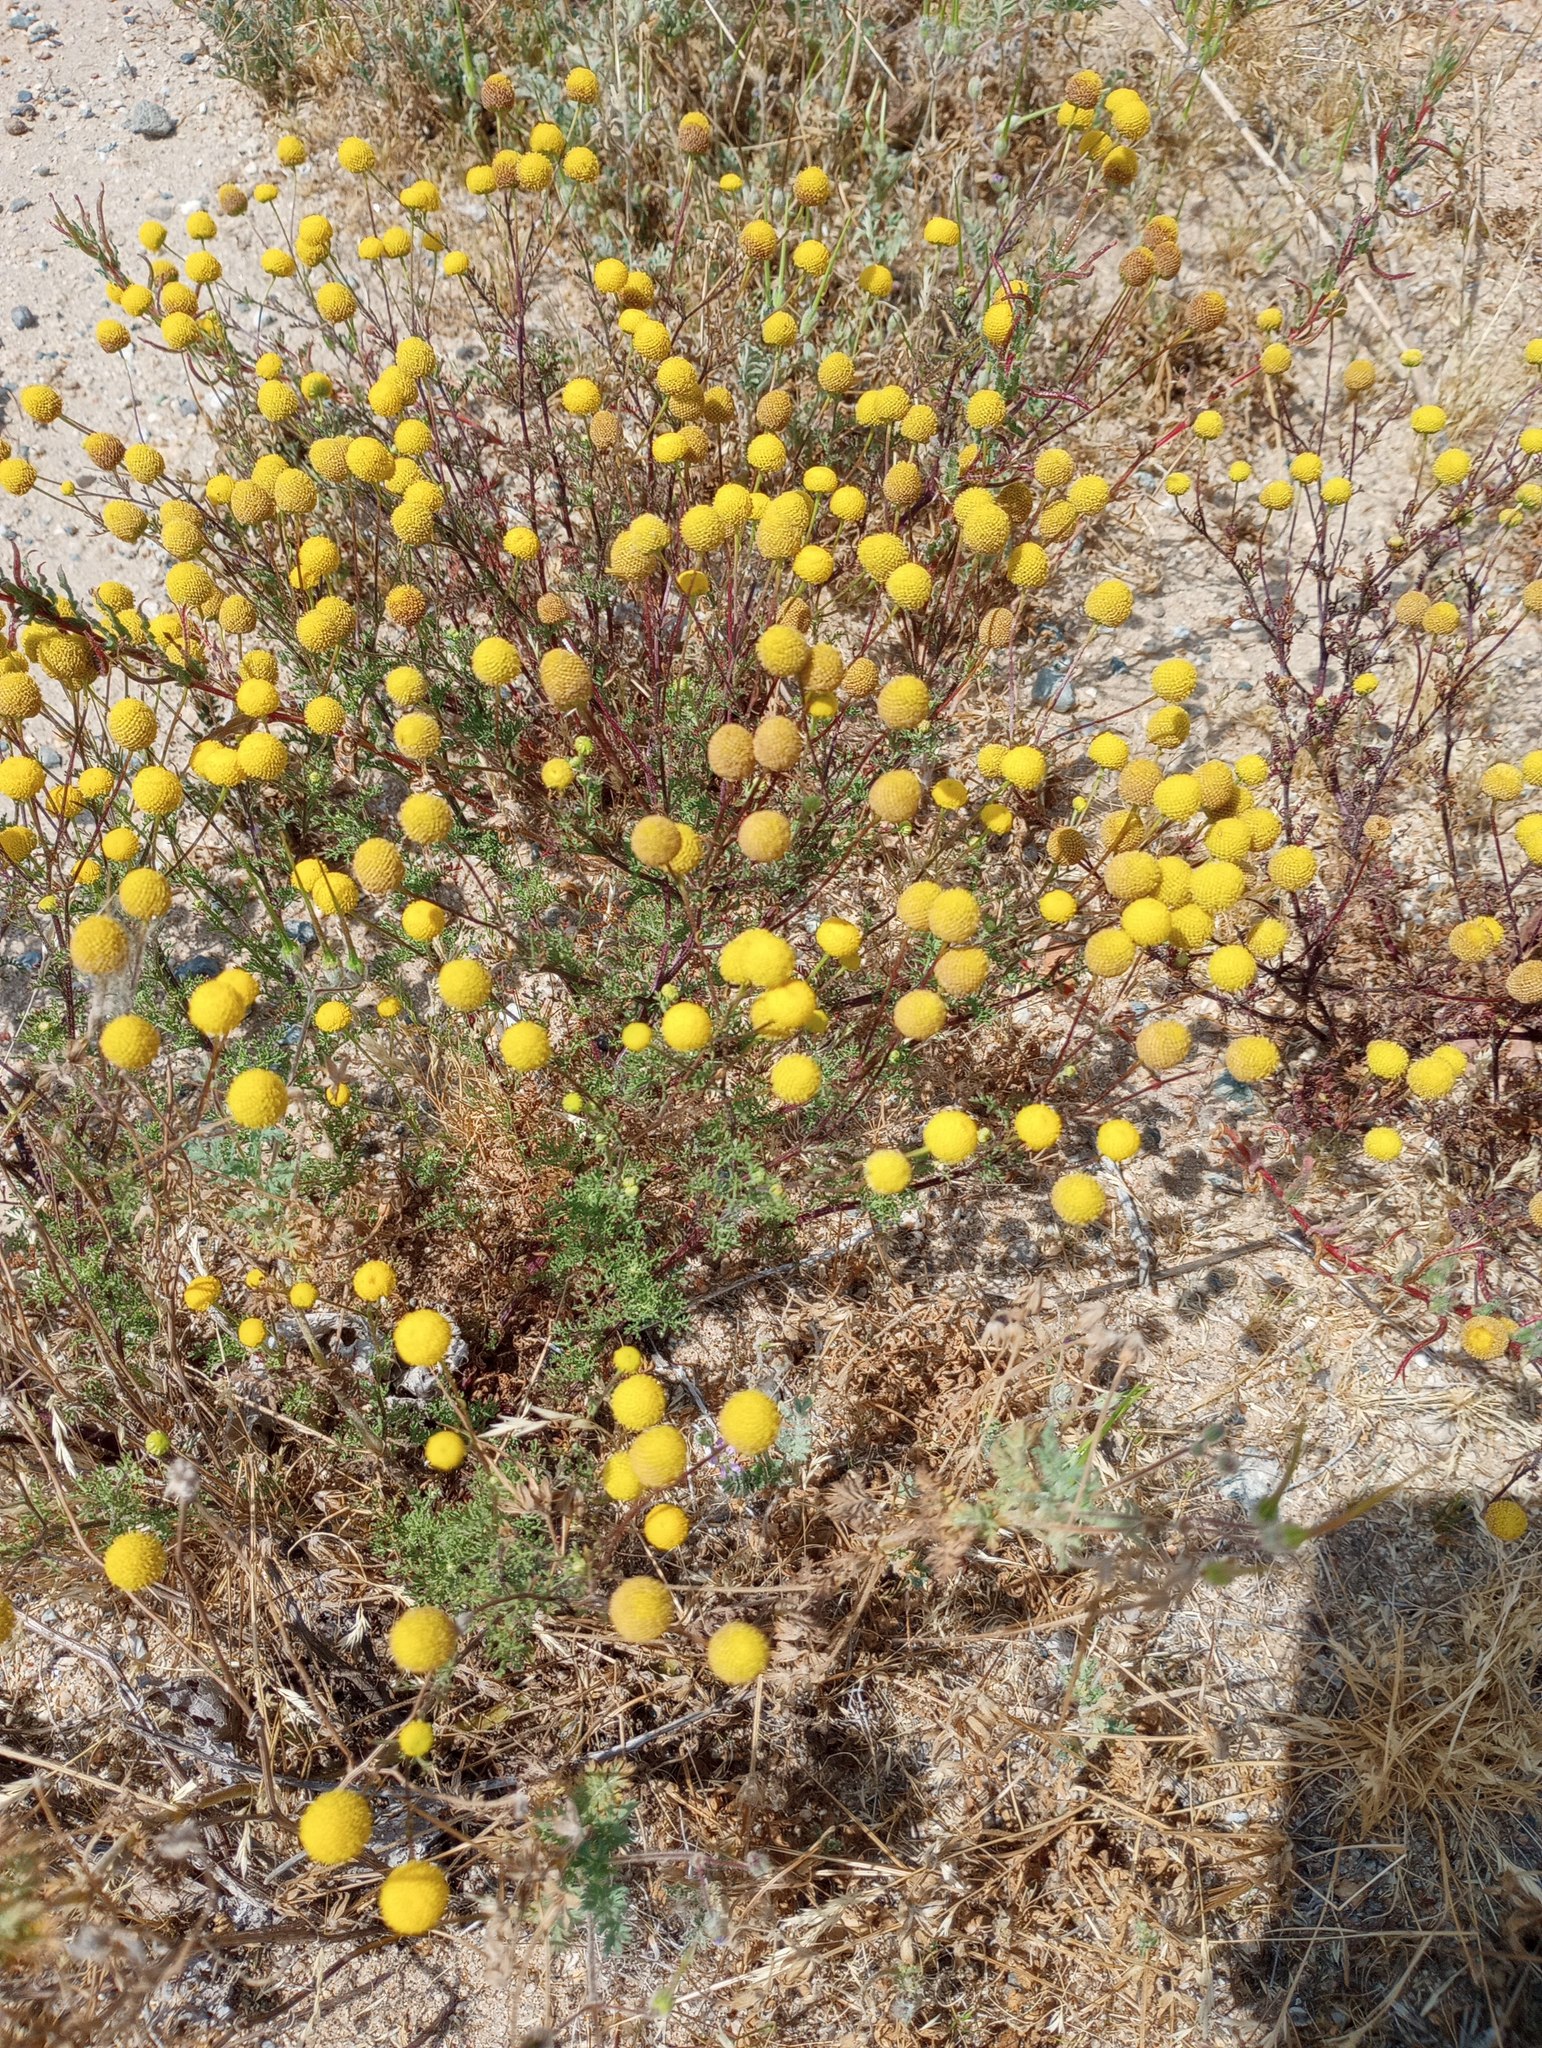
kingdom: Plantae
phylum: Tracheophyta
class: Magnoliopsida
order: Asterales
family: Asteraceae
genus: Oncosiphon
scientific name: Oncosiphon pilulifer
